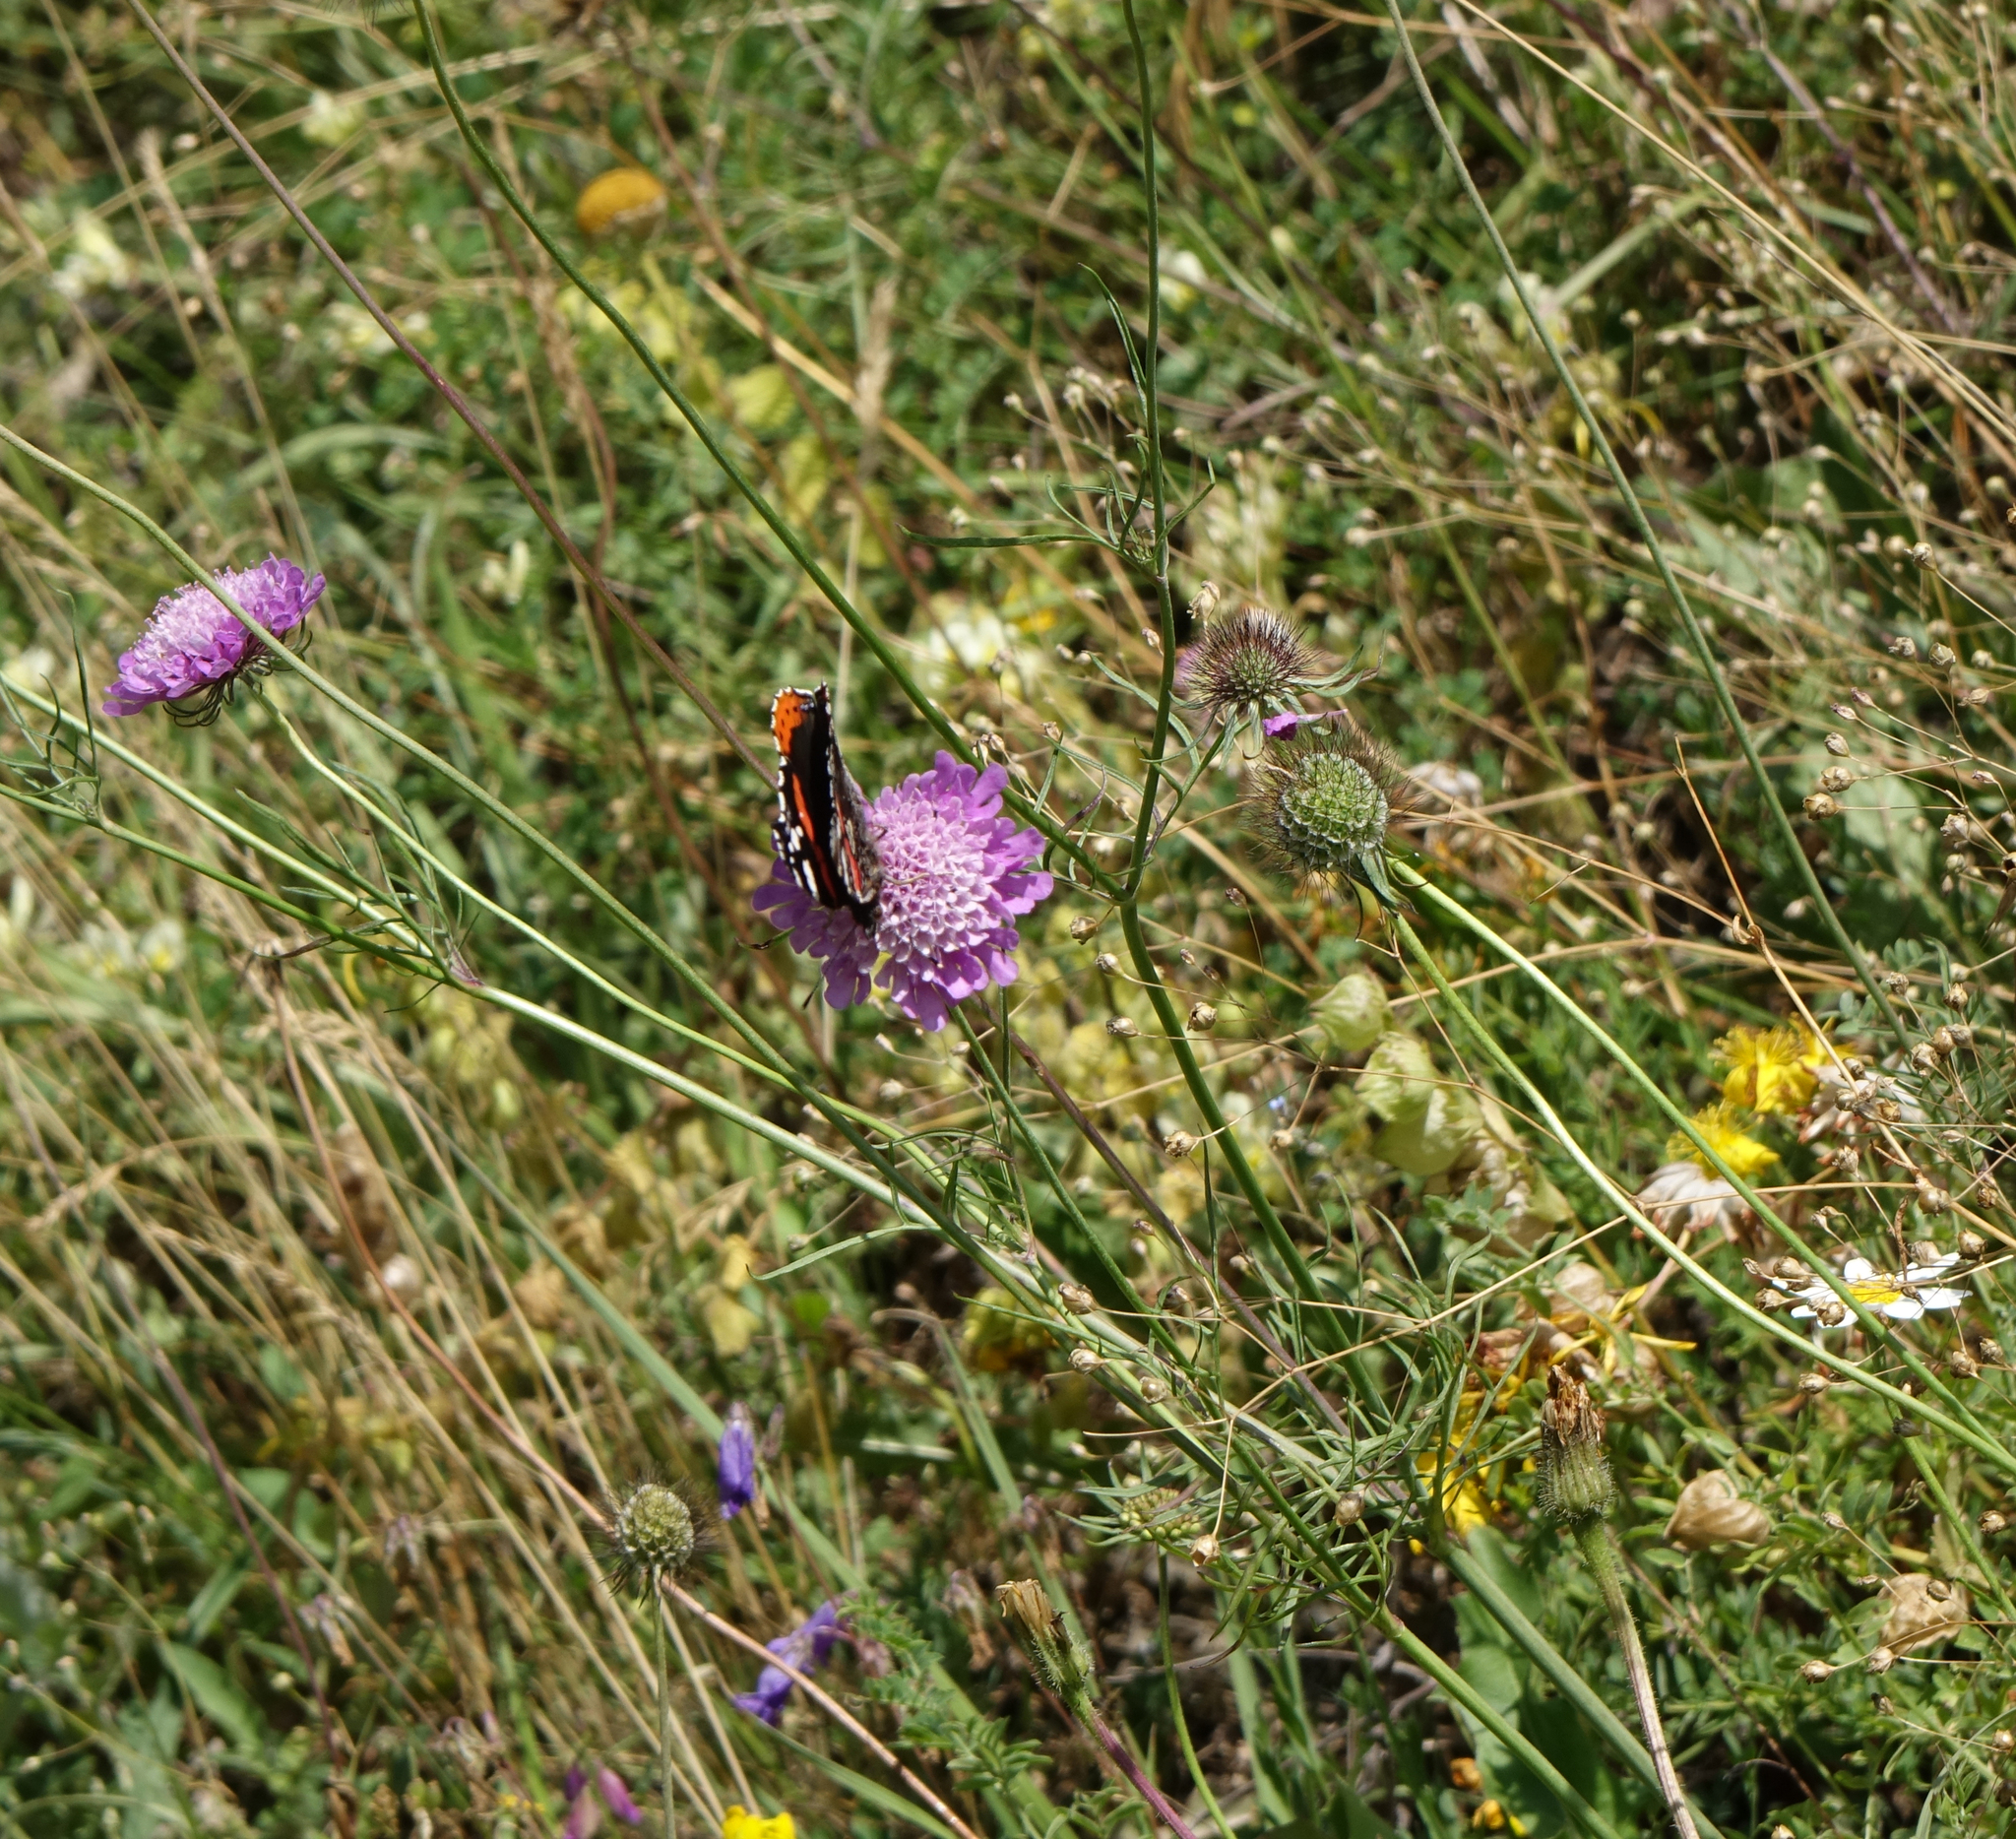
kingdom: Animalia
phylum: Arthropoda
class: Insecta
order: Lepidoptera
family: Nymphalidae
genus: Vanessa
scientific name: Vanessa atalanta
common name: Red admiral
